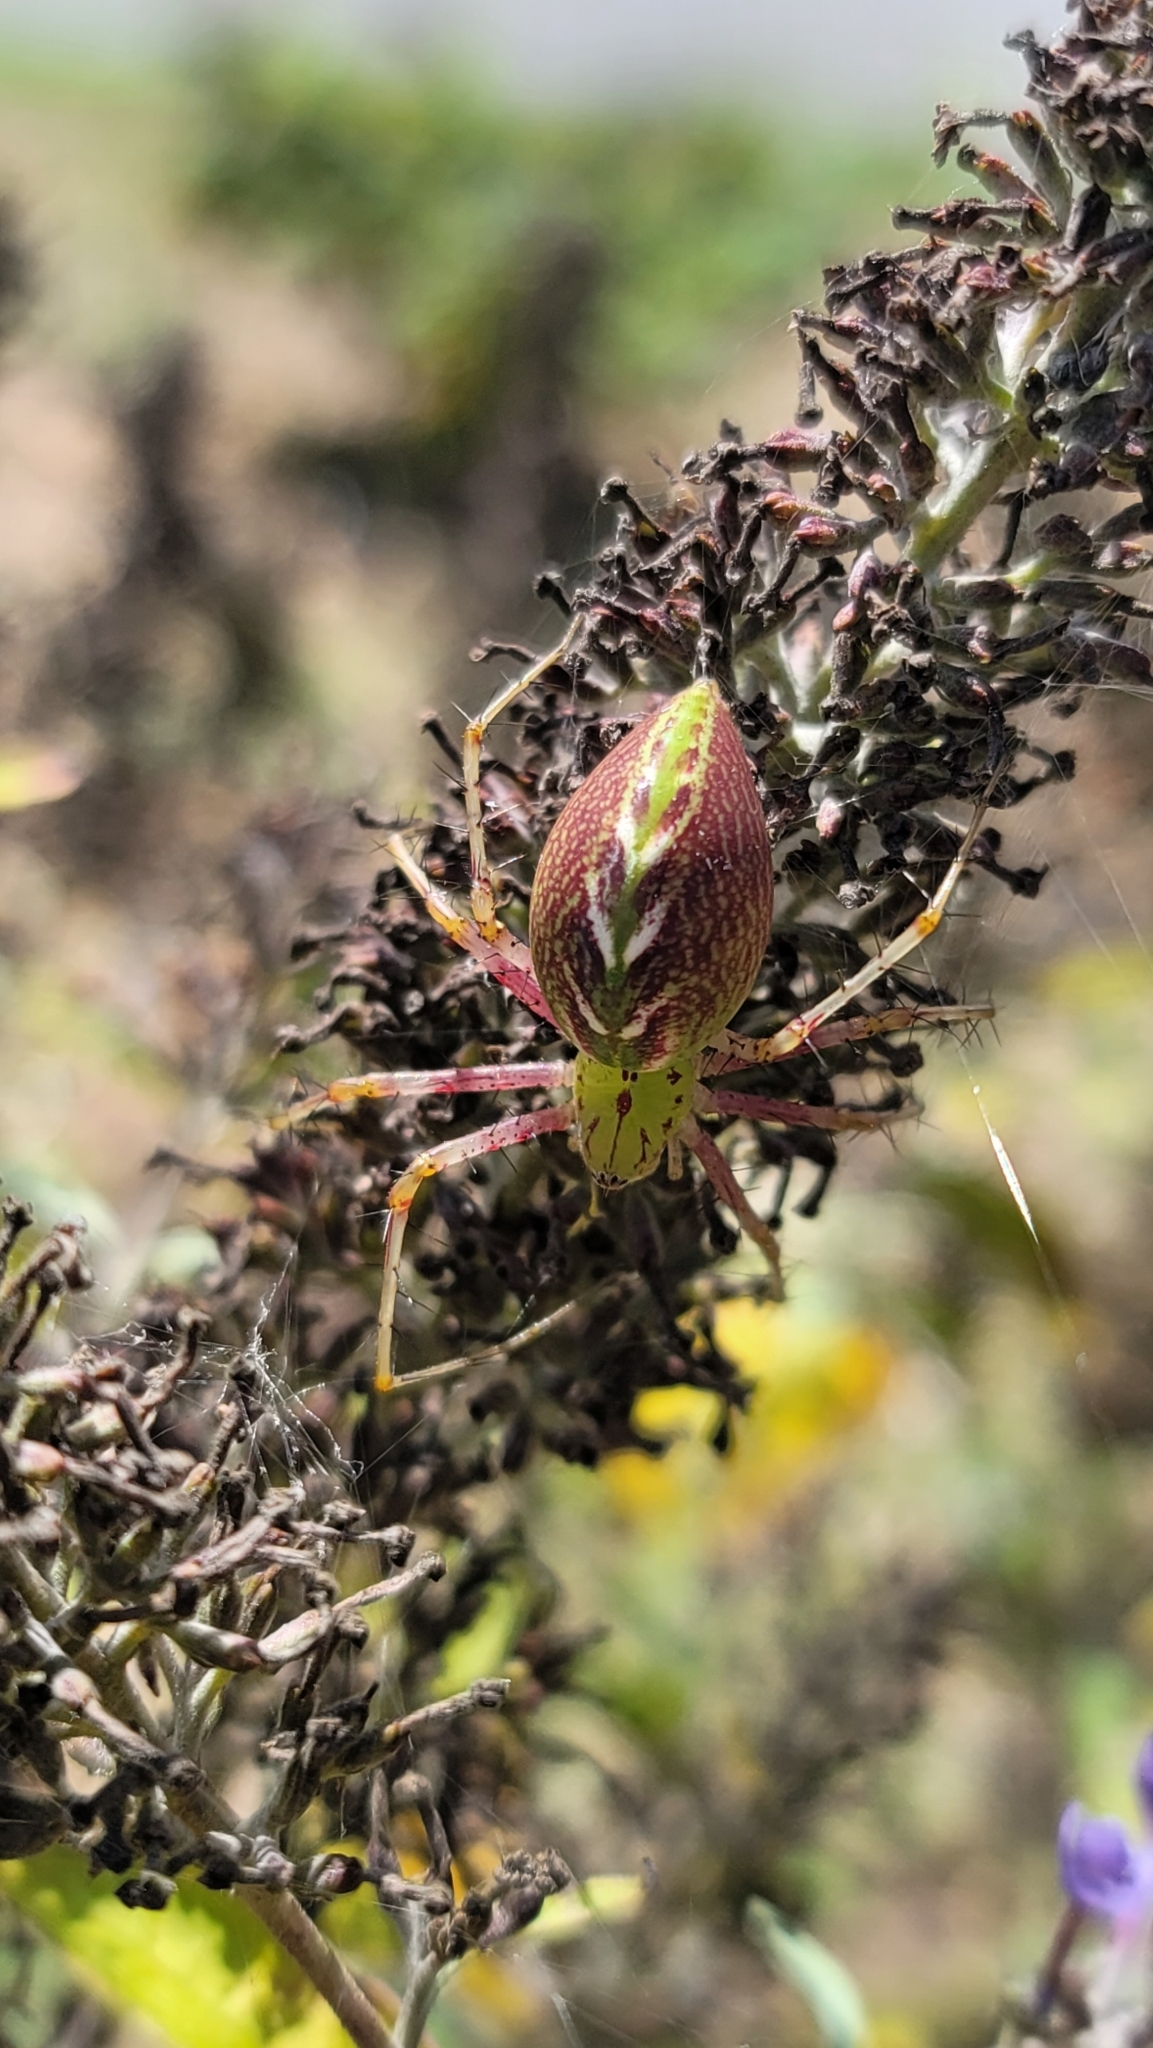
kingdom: Animalia
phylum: Arthropoda
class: Arachnida
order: Araneae
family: Oxyopidae
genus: Peucetia
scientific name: Peucetia viridans
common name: Lynx spiders
